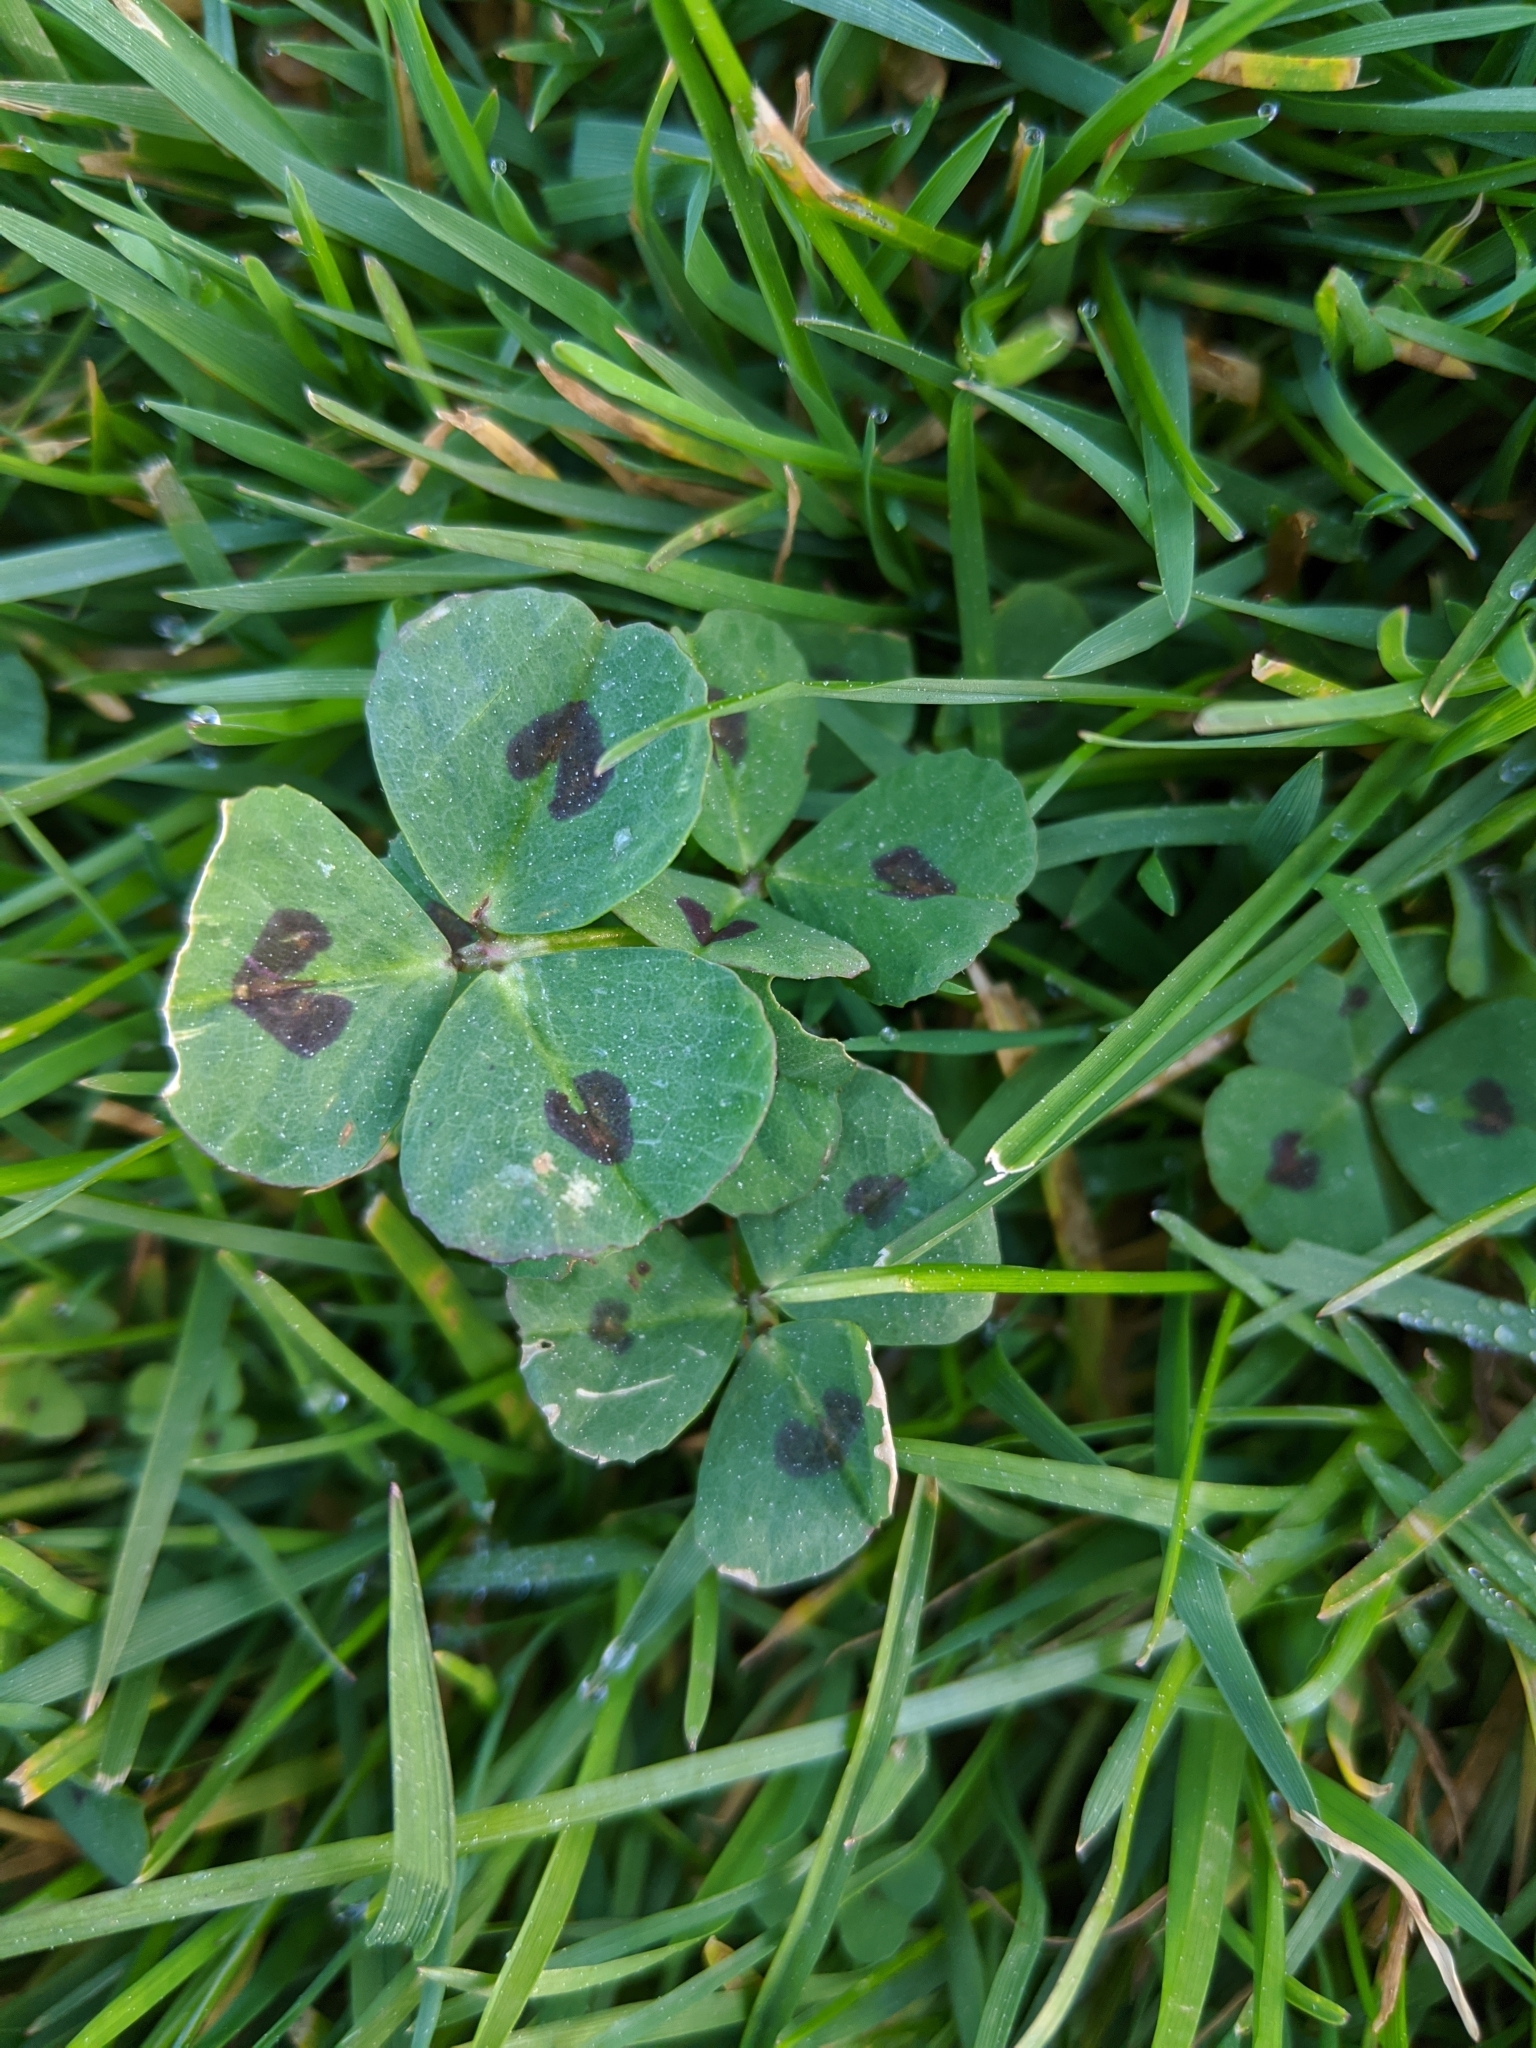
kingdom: Plantae
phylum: Tracheophyta
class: Magnoliopsida
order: Fabales
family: Fabaceae
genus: Medicago
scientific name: Medicago arabica
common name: Spotted medick
